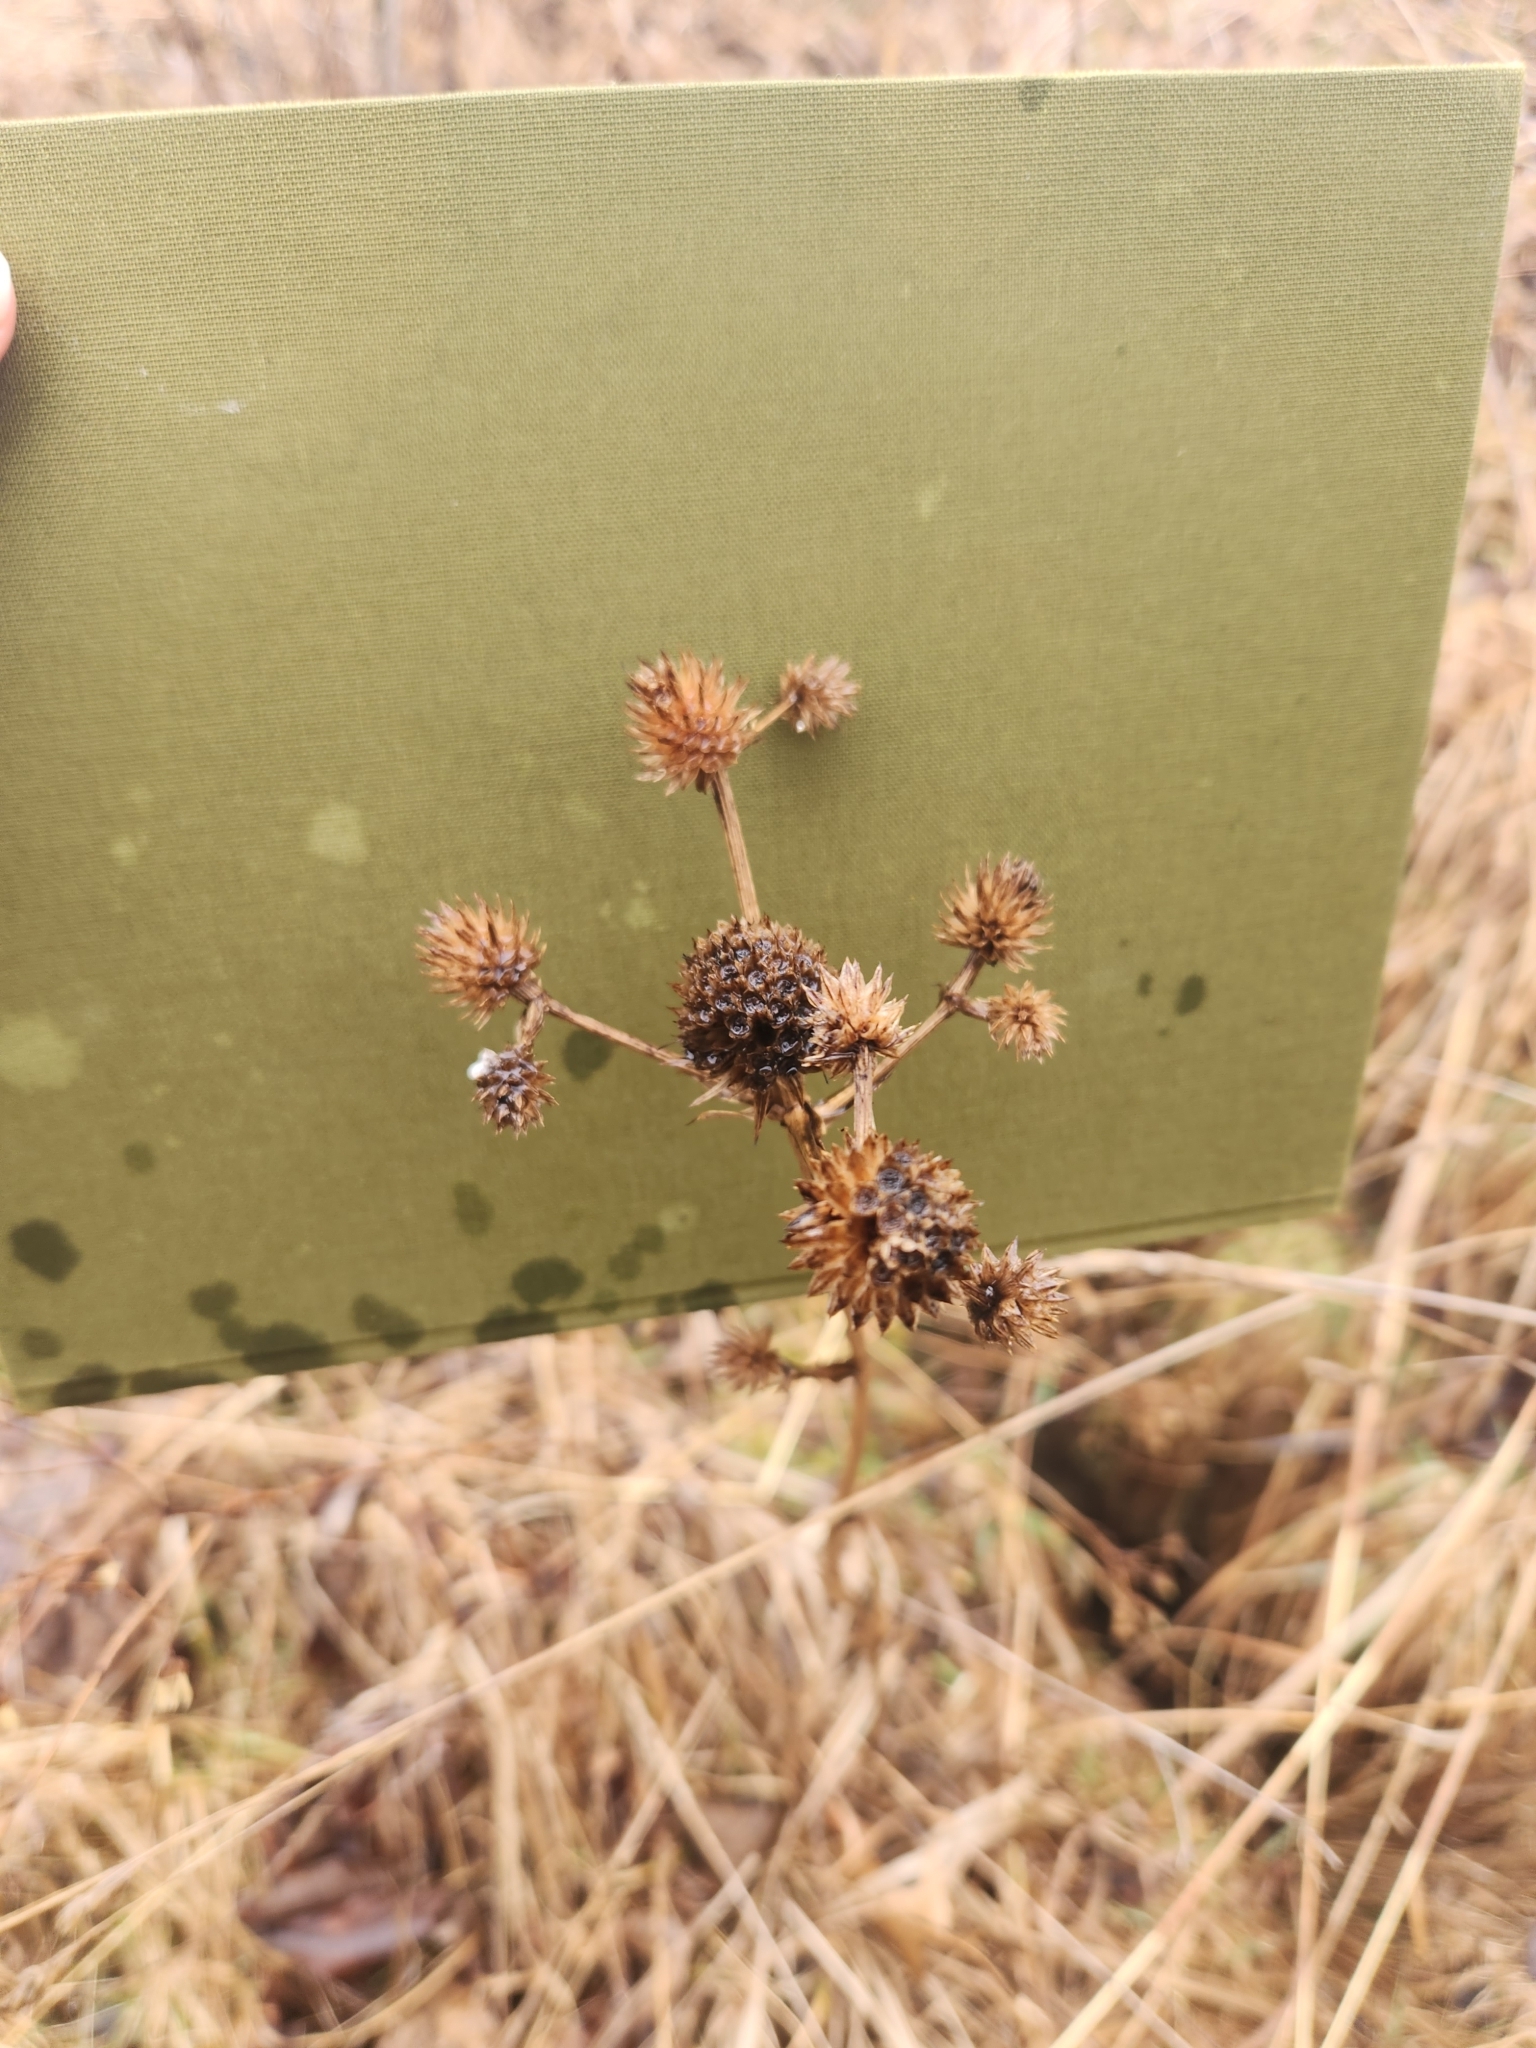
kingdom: Plantae
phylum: Tracheophyta
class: Magnoliopsida
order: Apiales
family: Apiaceae
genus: Eryngium
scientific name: Eryngium yuccifolium
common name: Button eryngo
